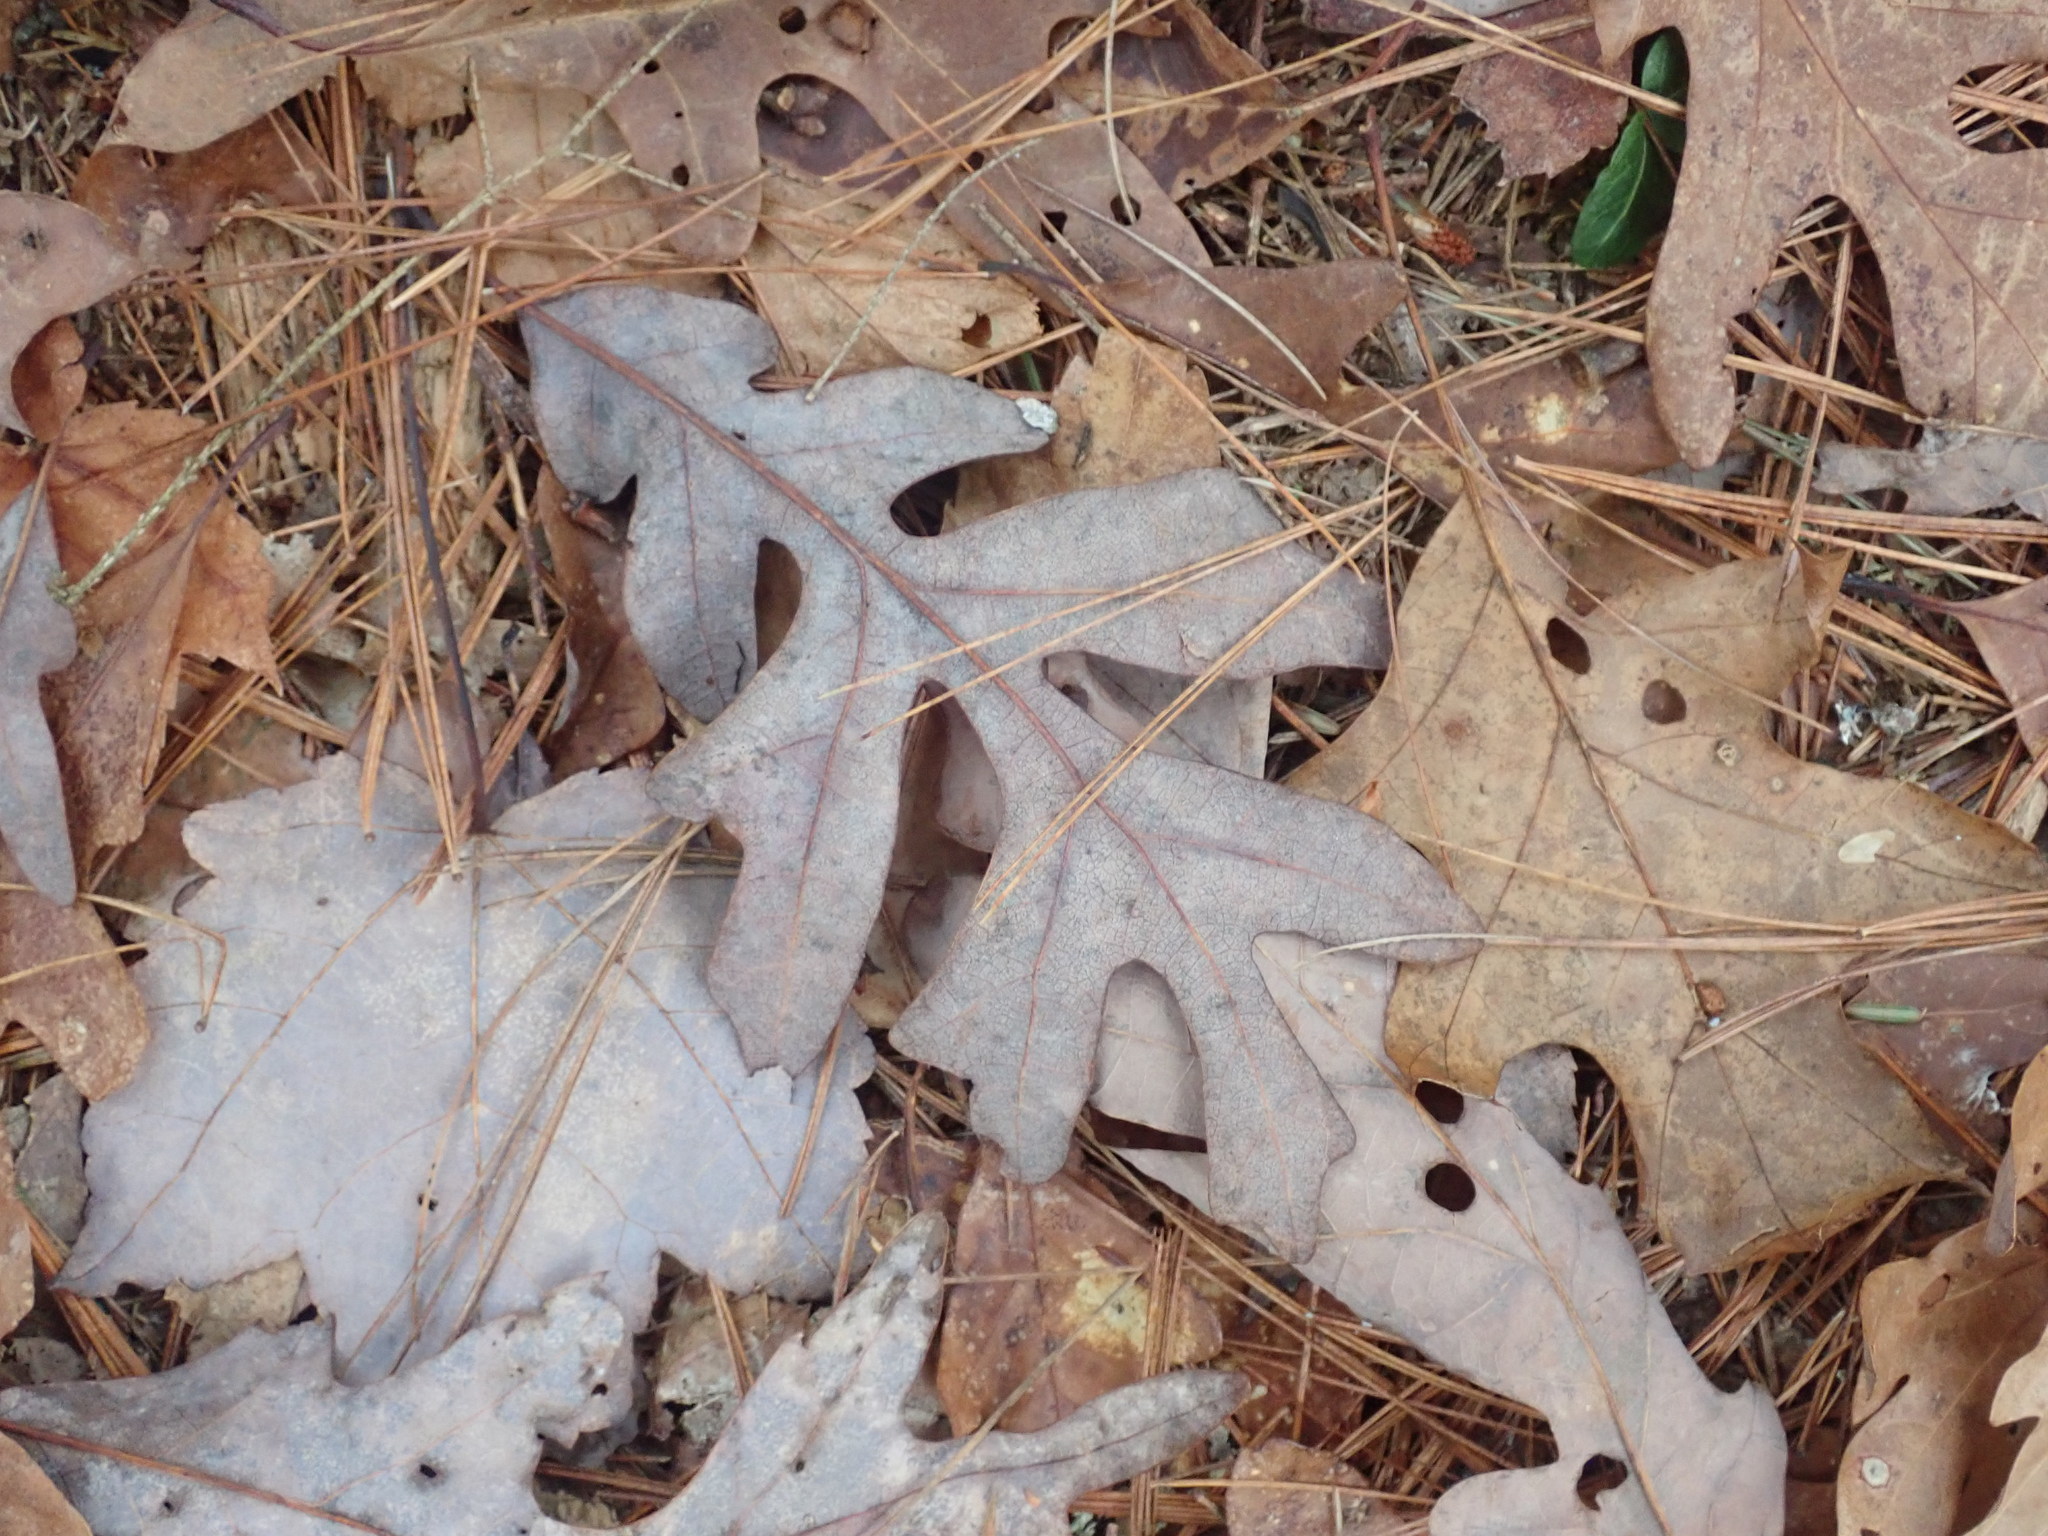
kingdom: Plantae
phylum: Tracheophyta
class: Magnoliopsida
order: Fagales
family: Fagaceae
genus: Quercus
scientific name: Quercus alba
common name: White oak
